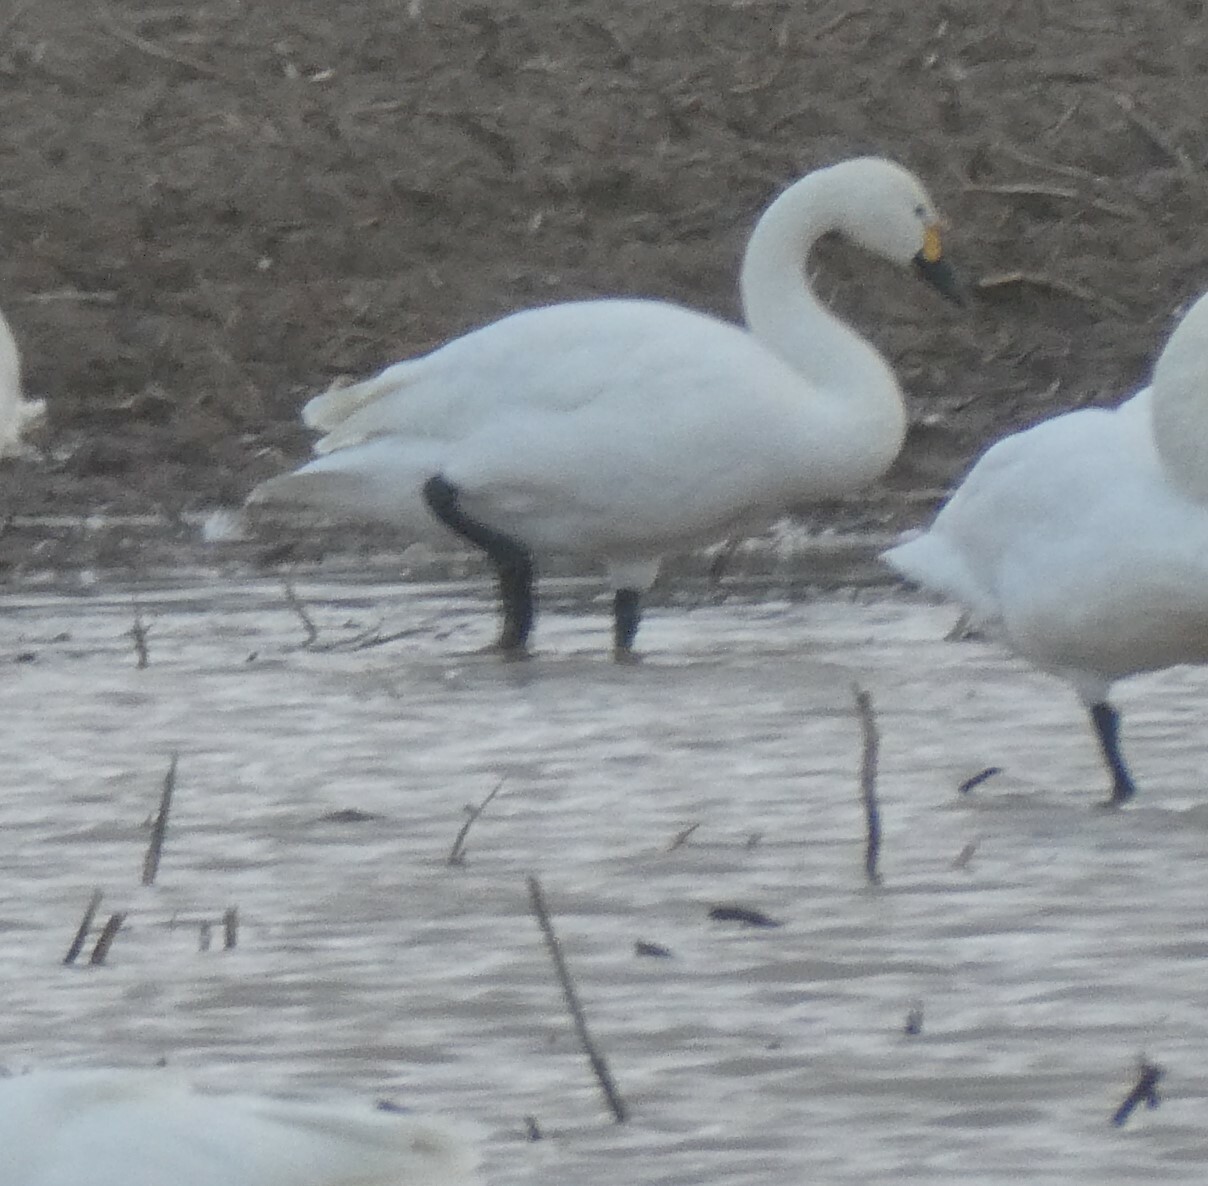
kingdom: Animalia
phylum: Chordata
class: Aves
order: Anseriformes
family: Anatidae
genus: Cygnus
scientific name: Cygnus columbianus
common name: Tundra swan
